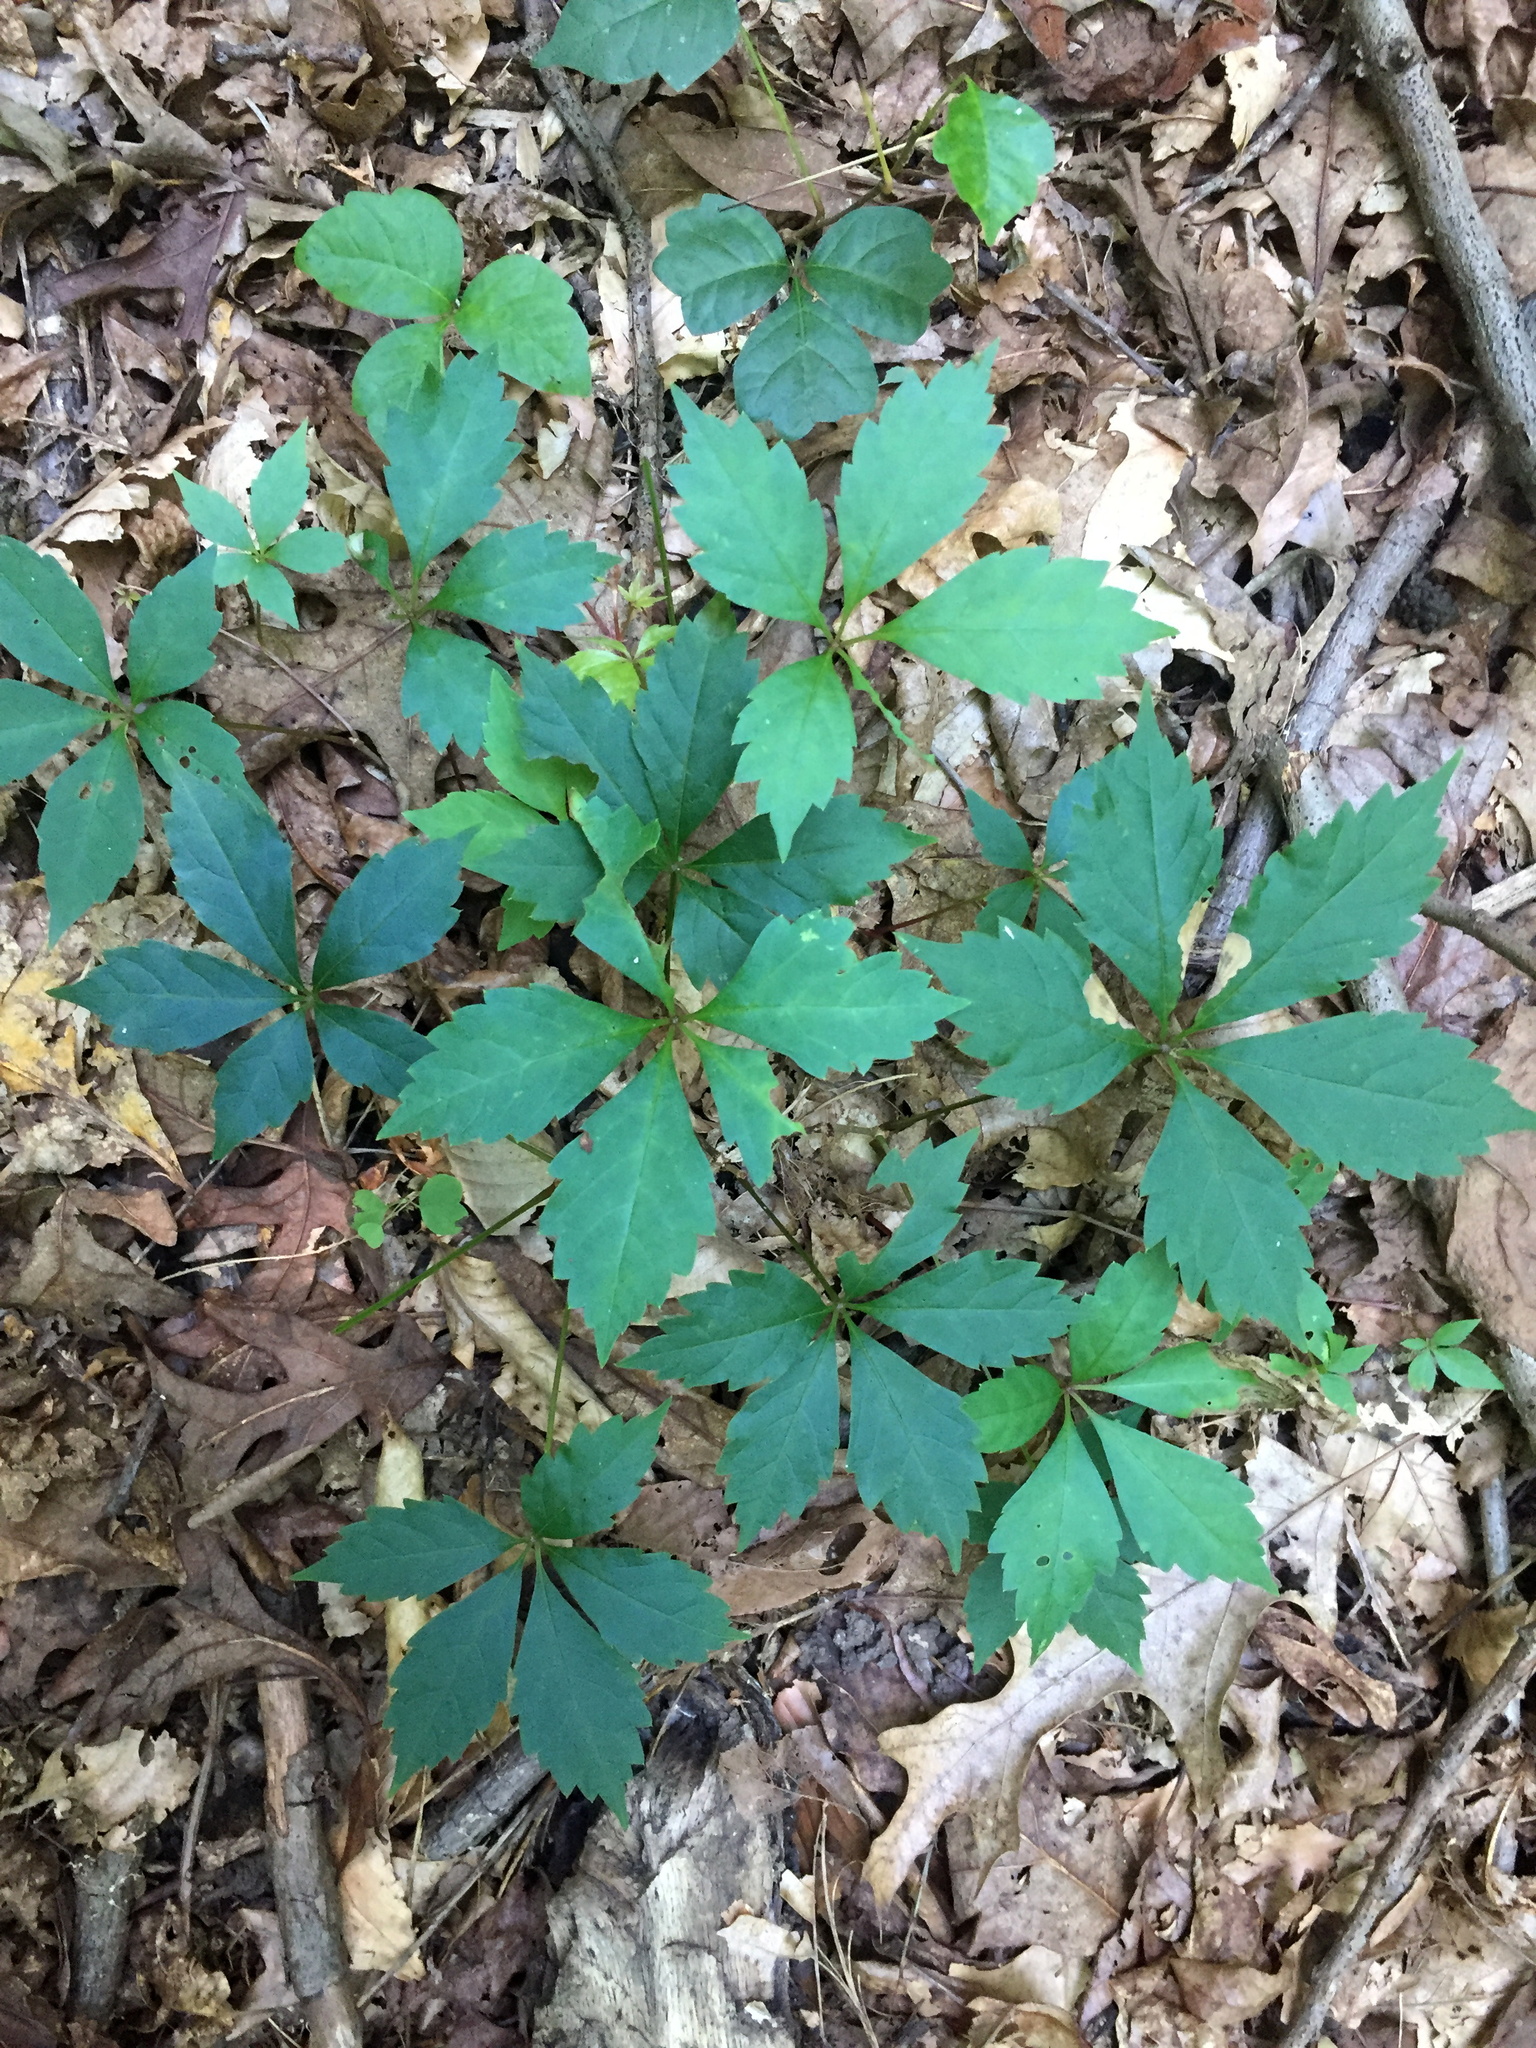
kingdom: Plantae
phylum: Tracheophyta
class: Magnoliopsida
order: Vitales
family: Vitaceae
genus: Parthenocissus
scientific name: Parthenocissus quinquefolia
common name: Virginia-creeper
